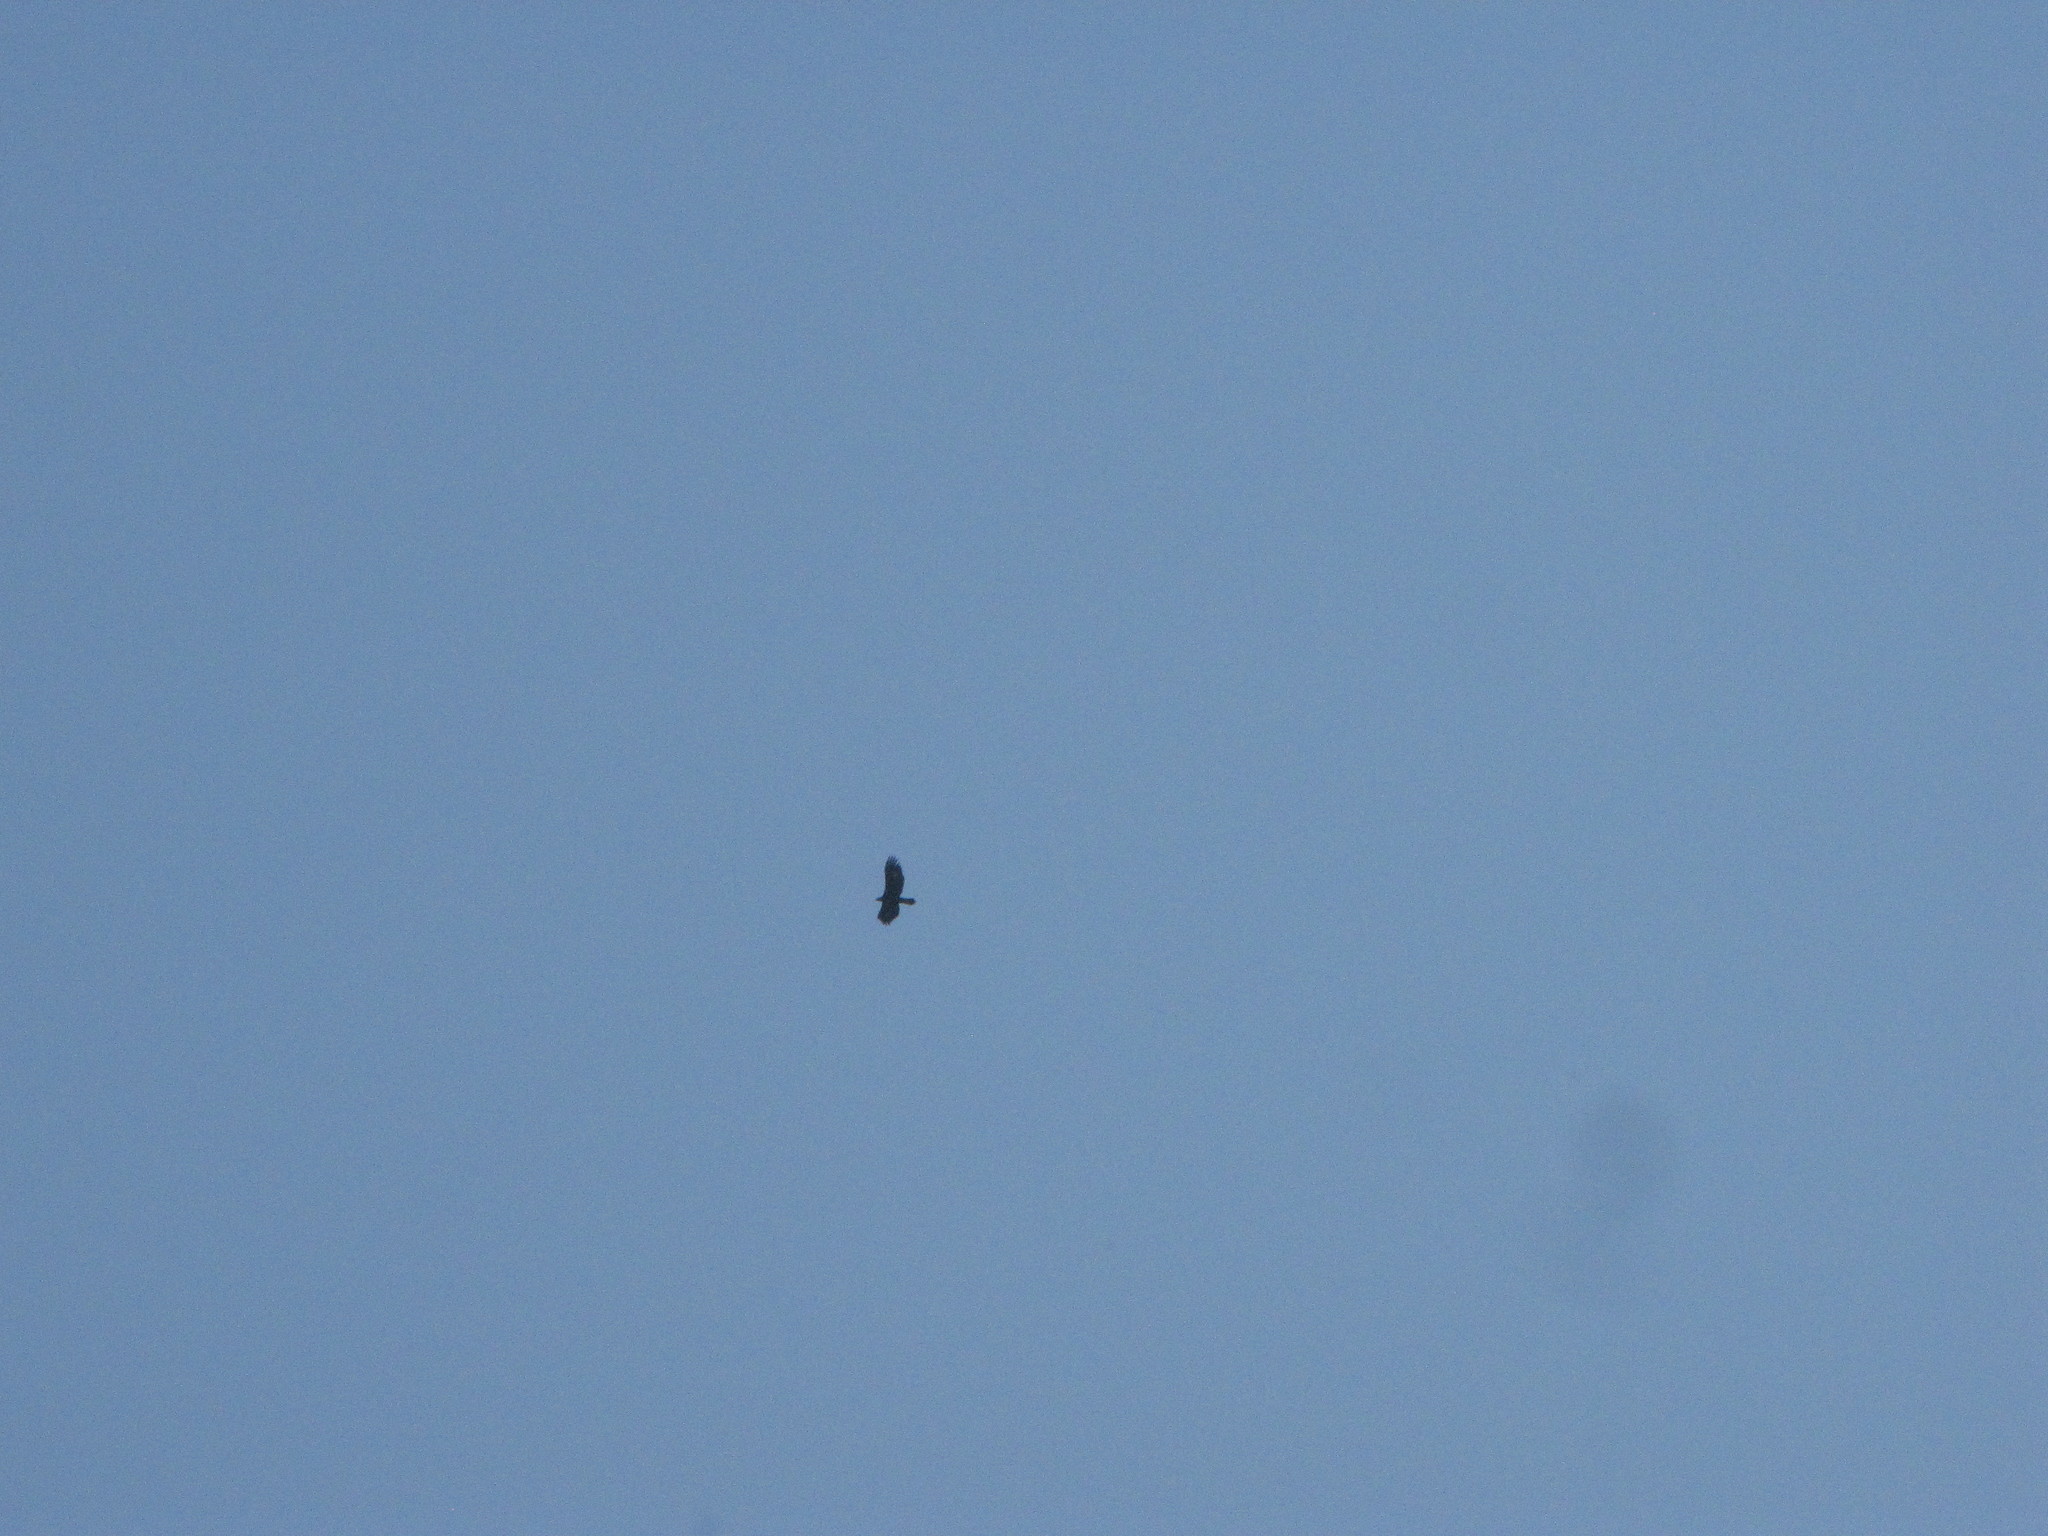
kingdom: Animalia
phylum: Chordata
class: Aves
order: Accipitriformes
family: Accipitridae
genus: Aquila
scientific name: Aquila chrysaetos
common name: Golden eagle
